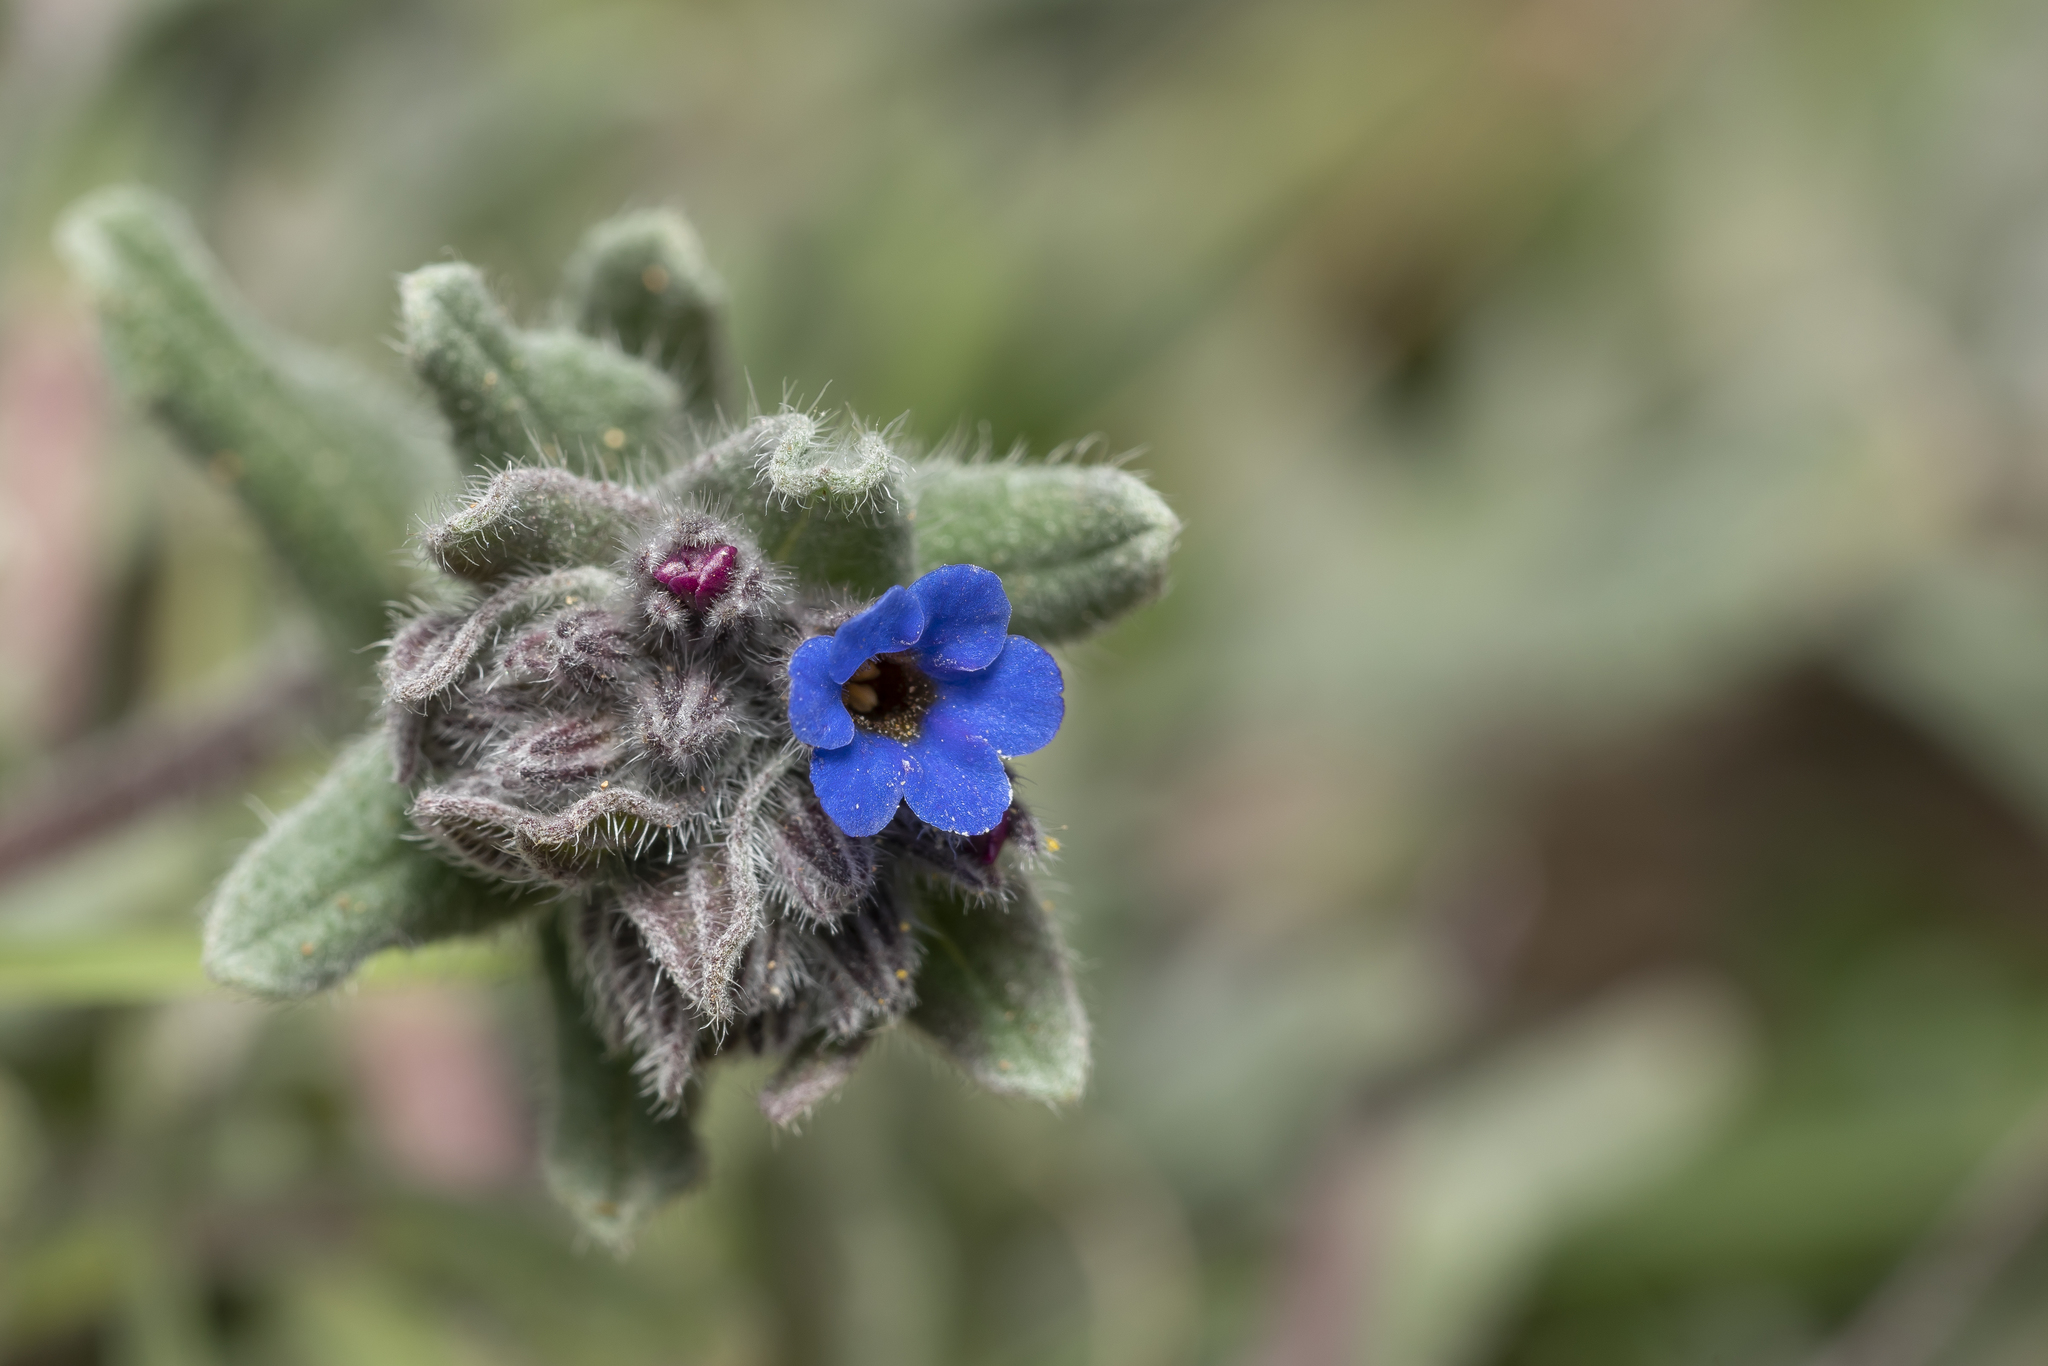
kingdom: Plantae
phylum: Tracheophyta
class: Magnoliopsida
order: Boraginales
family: Boraginaceae
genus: Alkanna
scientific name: Alkanna tinctoria
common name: Dyer's-alkanet
